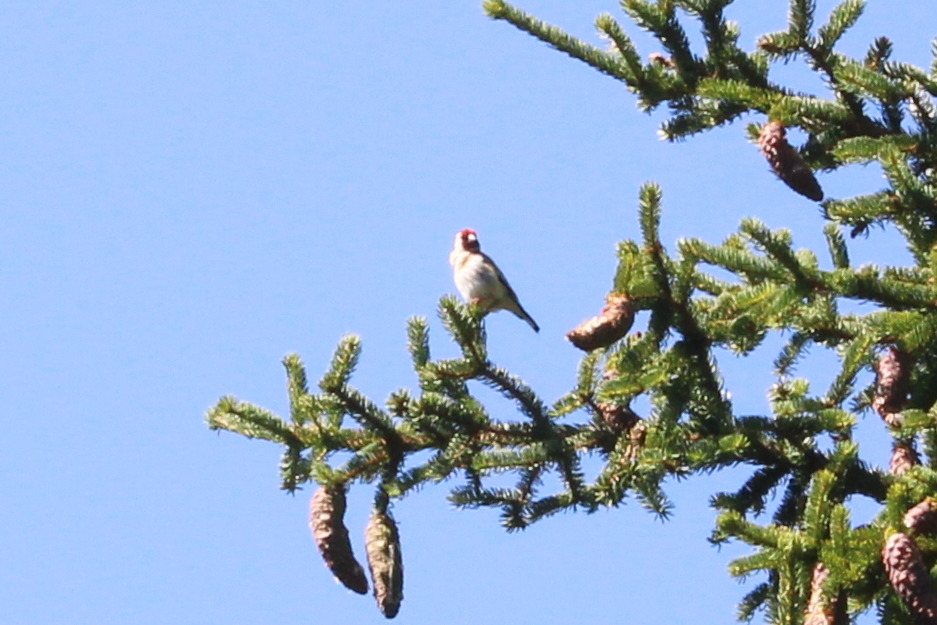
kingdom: Animalia
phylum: Chordata
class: Aves
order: Passeriformes
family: Fringillidae
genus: Carduelis
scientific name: Carduelis carduelis
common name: European goldfinch
